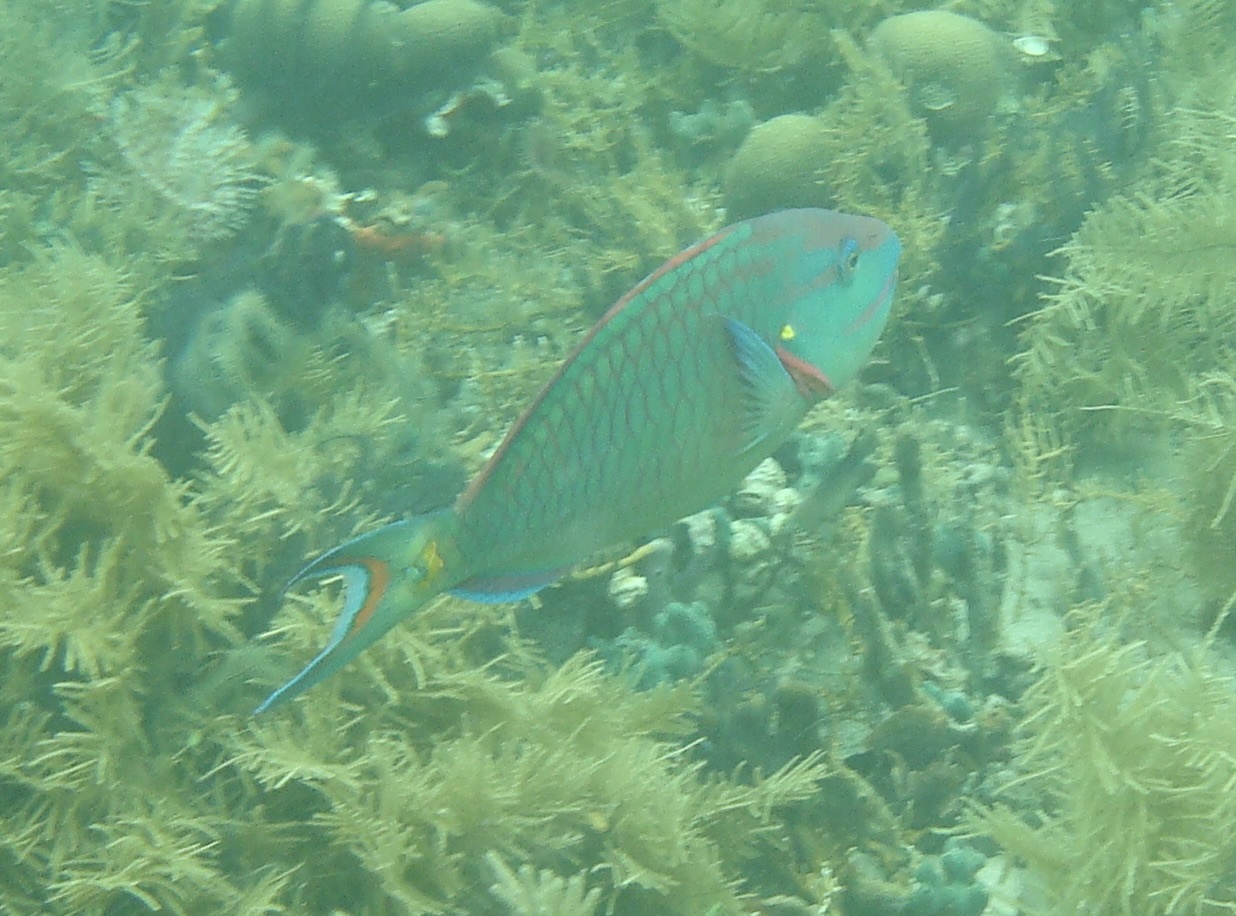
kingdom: Animalia
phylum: Chordata
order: Perciformes
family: Scaridae
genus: Sparisoma
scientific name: Sparisoma viride
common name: Stoplight parrotfish
